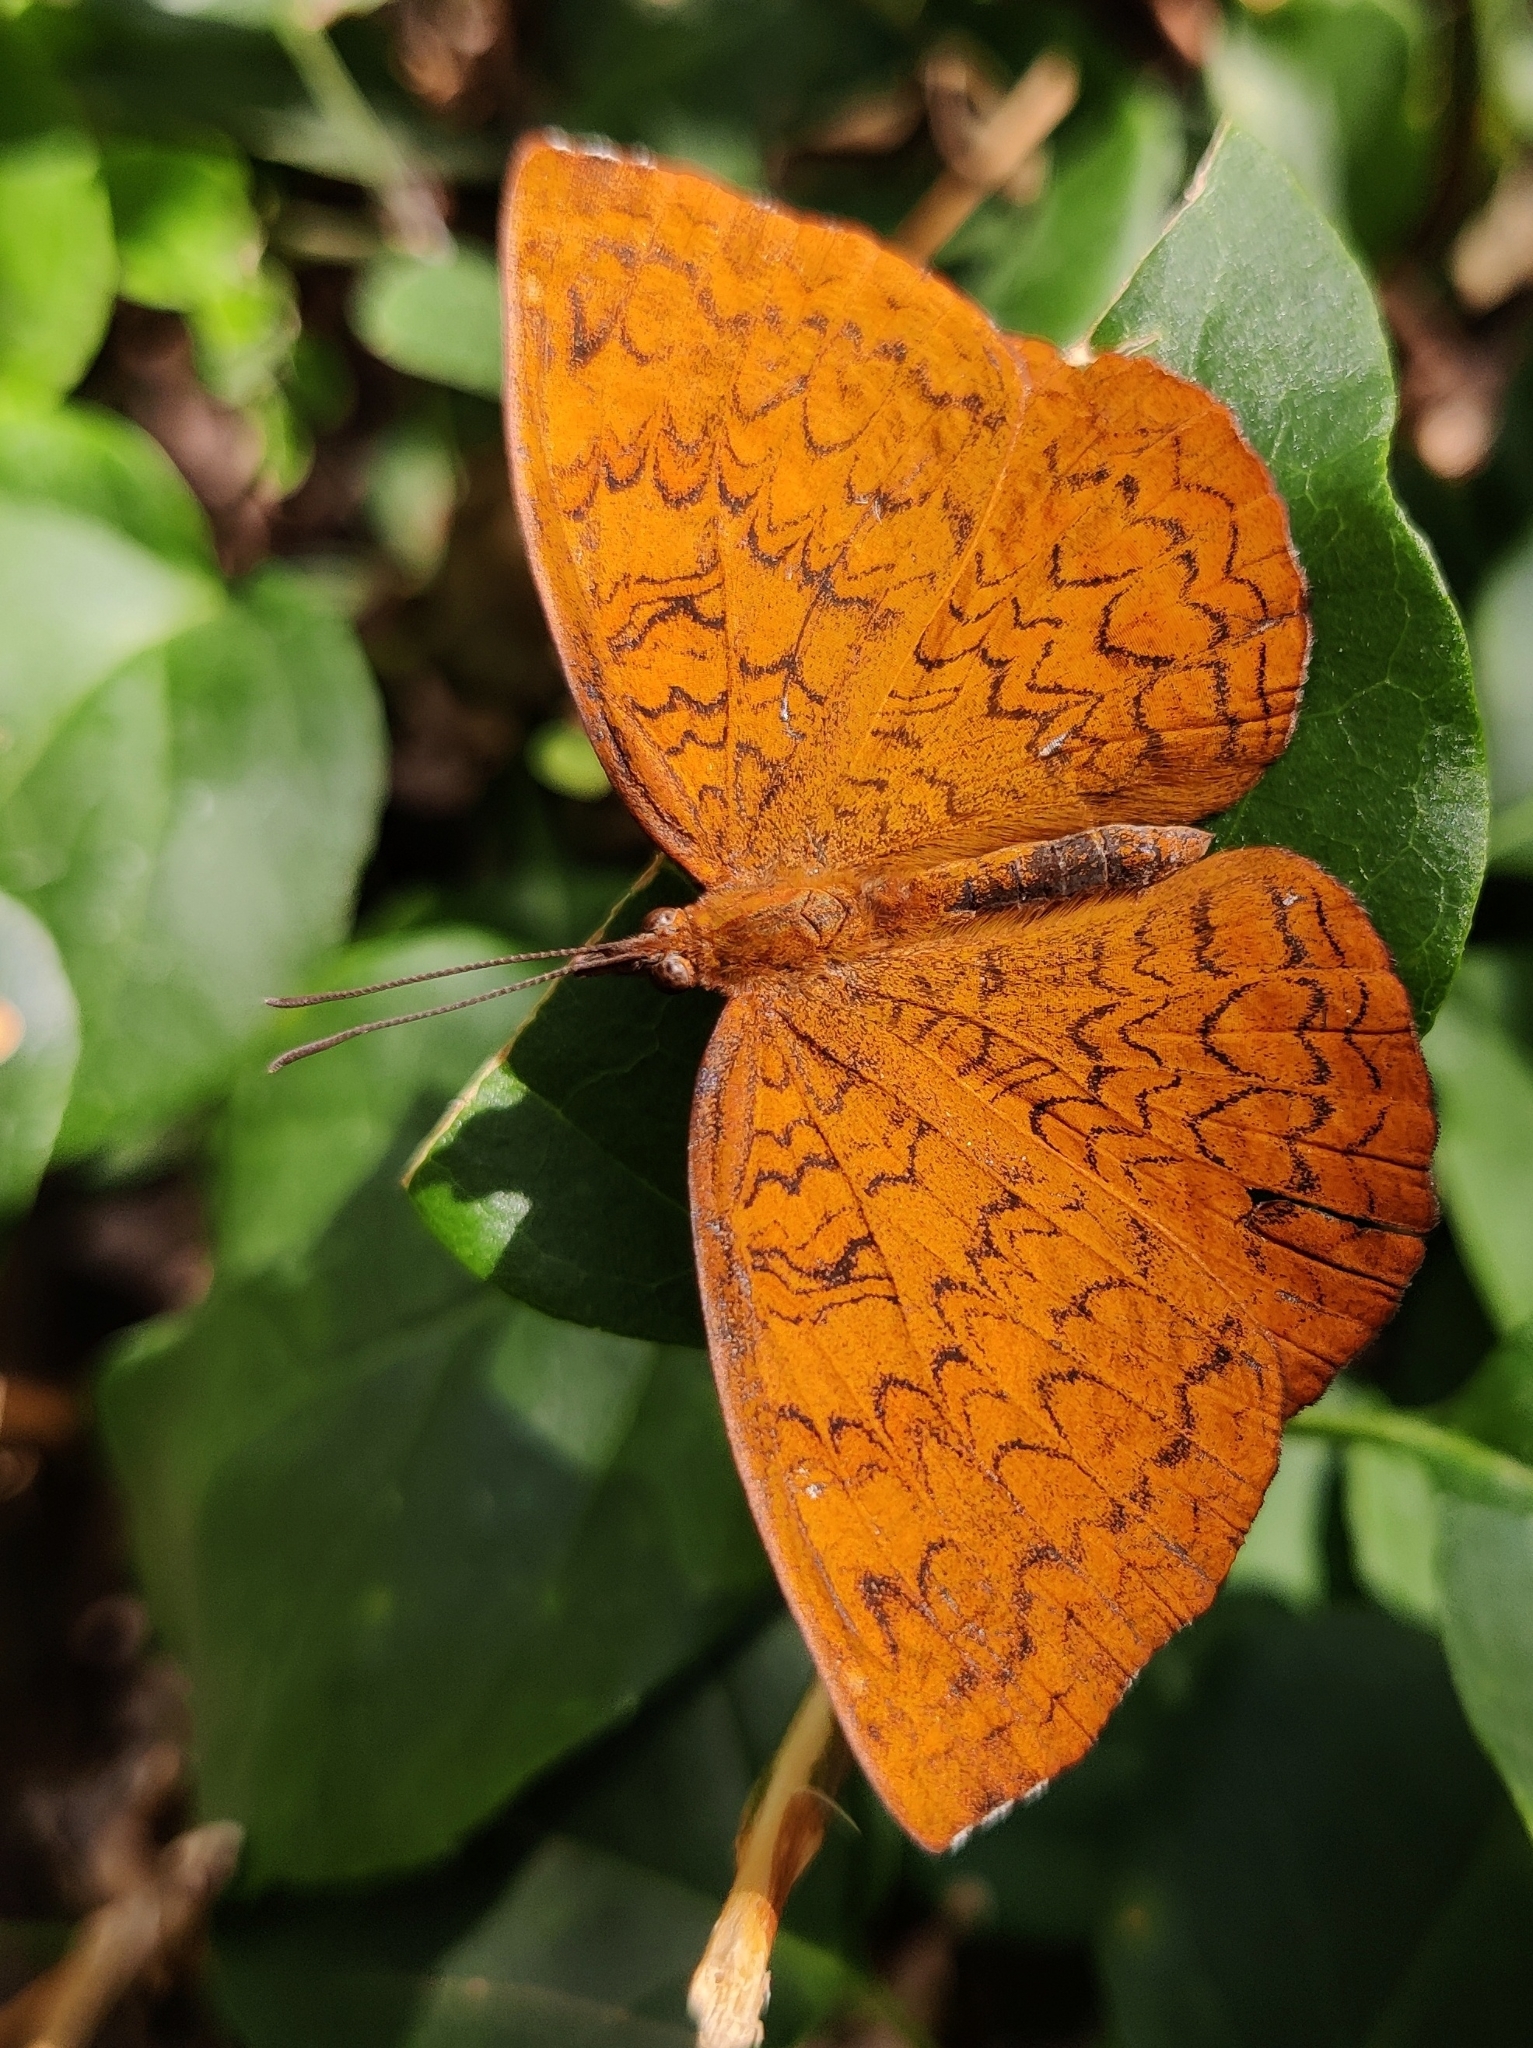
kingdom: Animalia
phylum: Arthropoda
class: Insecta
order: Lepidoptera
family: Nymphalidae
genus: Ariadne
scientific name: Ariadne merione
